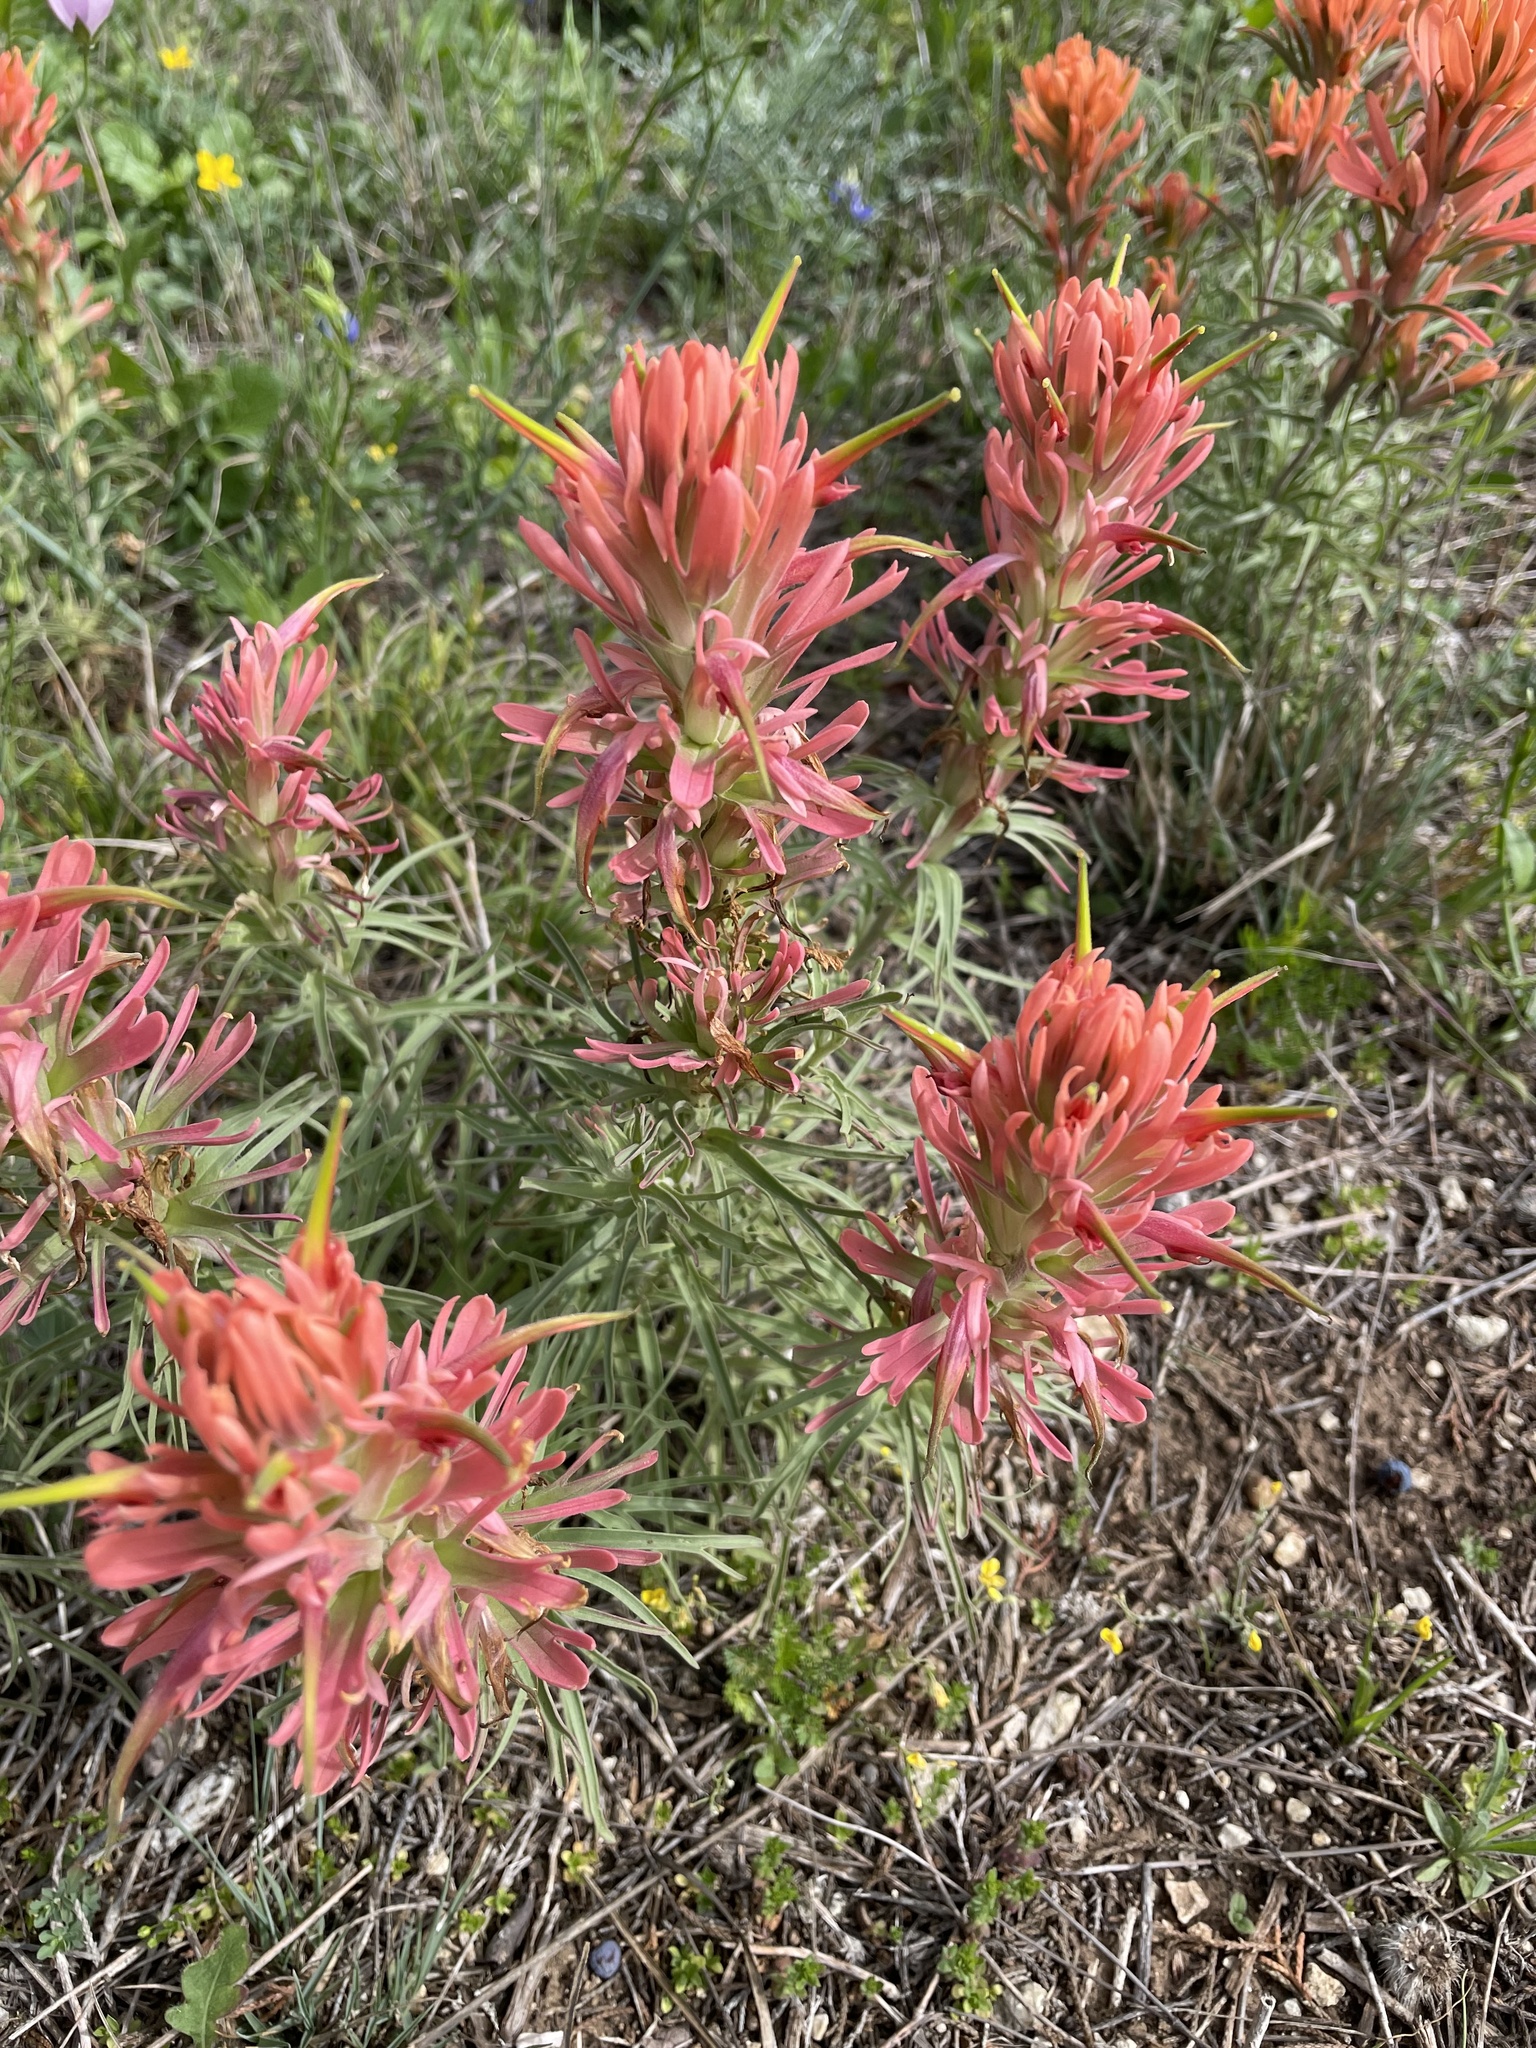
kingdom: Plantae
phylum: Tracheophyta
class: Magnoliopsida
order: Lamiales
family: Orobanchaceae
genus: Castilleja
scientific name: Castilleja lindheimeri
